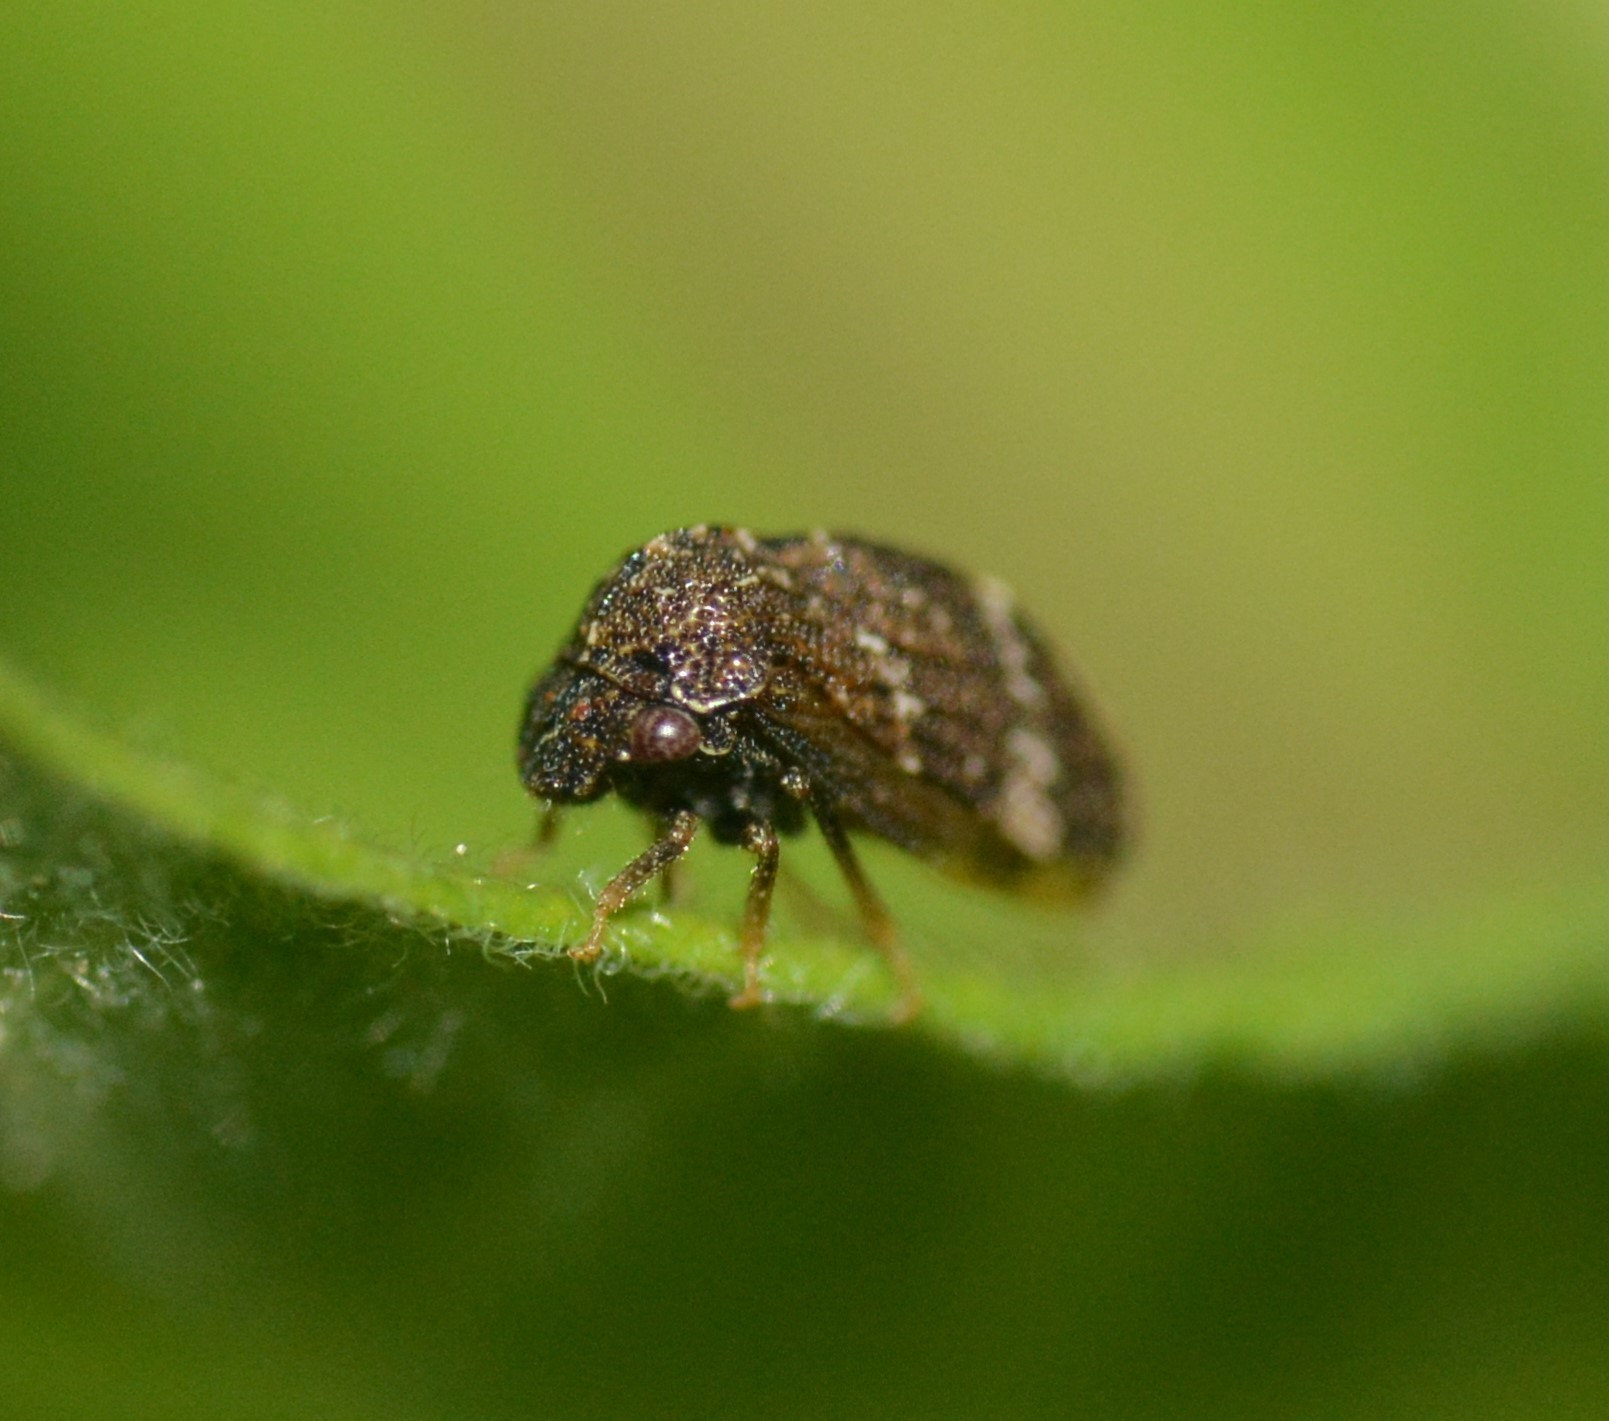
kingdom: Animalia
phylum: Arthropoda
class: Insecta
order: Hemiptera
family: Membracidae
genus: Publilia
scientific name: Publilia concava
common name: Aster treehopper
